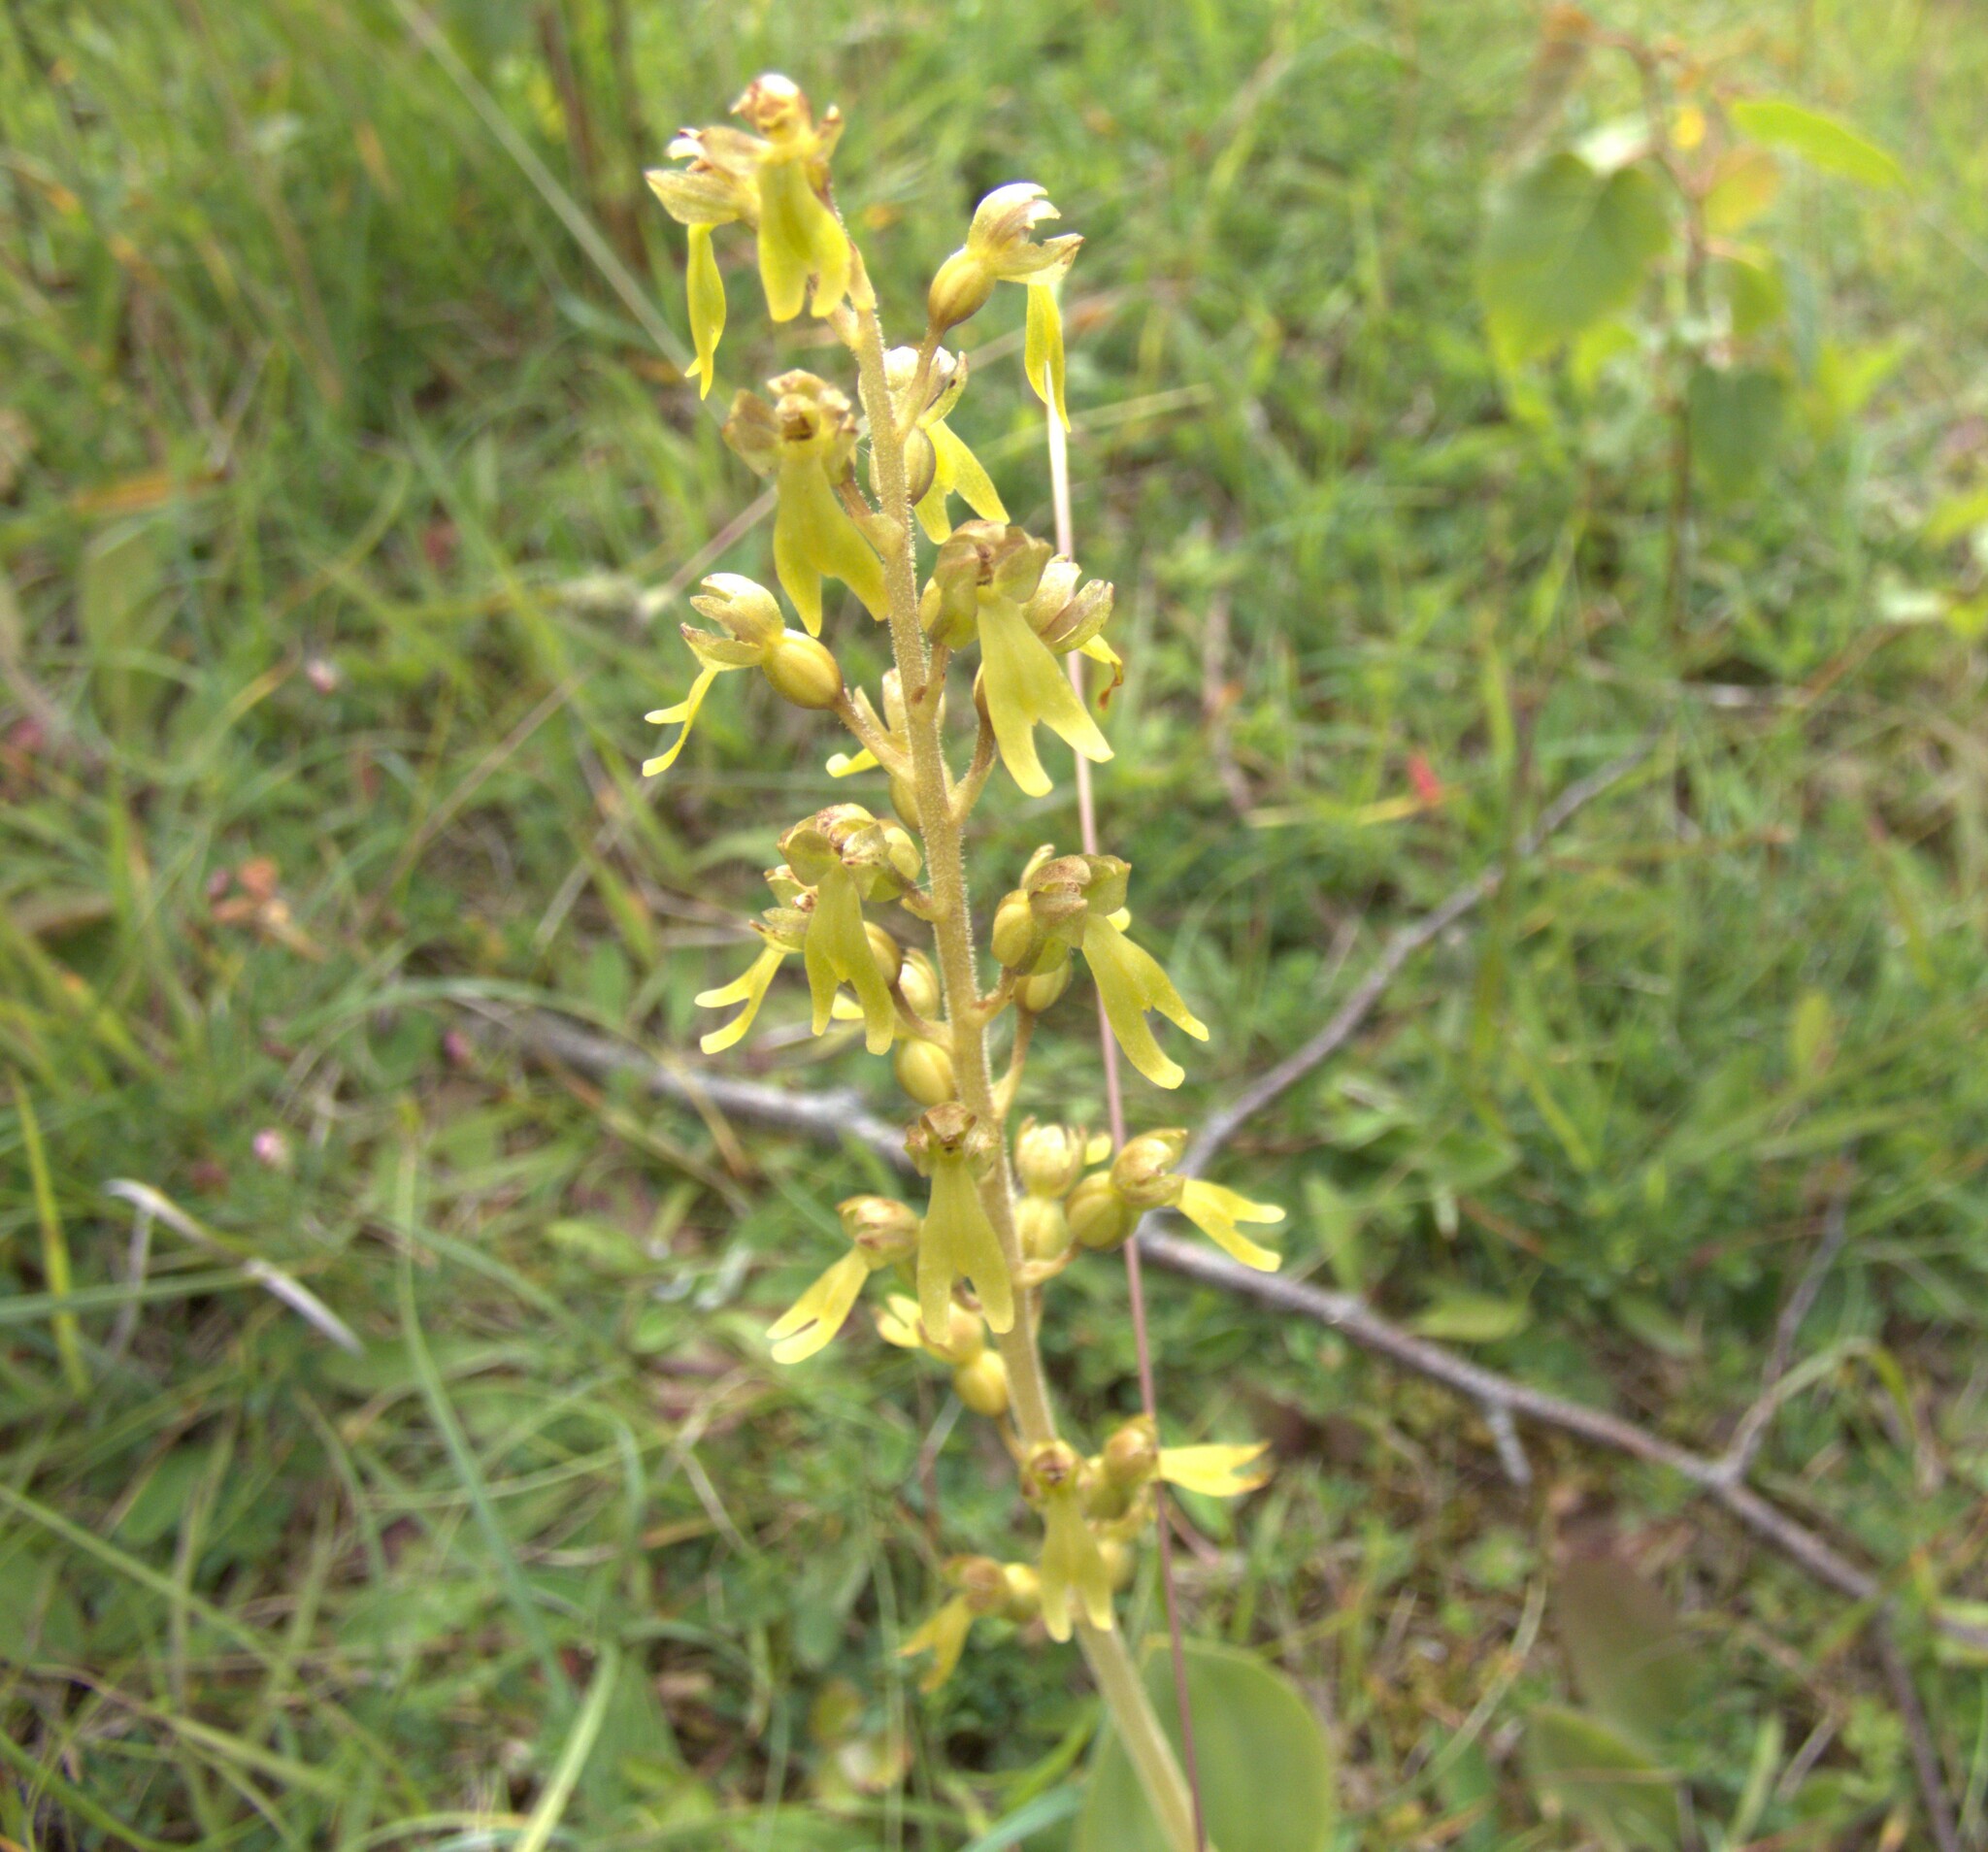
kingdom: Plantae
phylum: Tracheophyta
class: Liliopsida
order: Asparagales
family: Orchidaceae
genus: Neottia
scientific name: Neottia ovata
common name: Common twayblade
